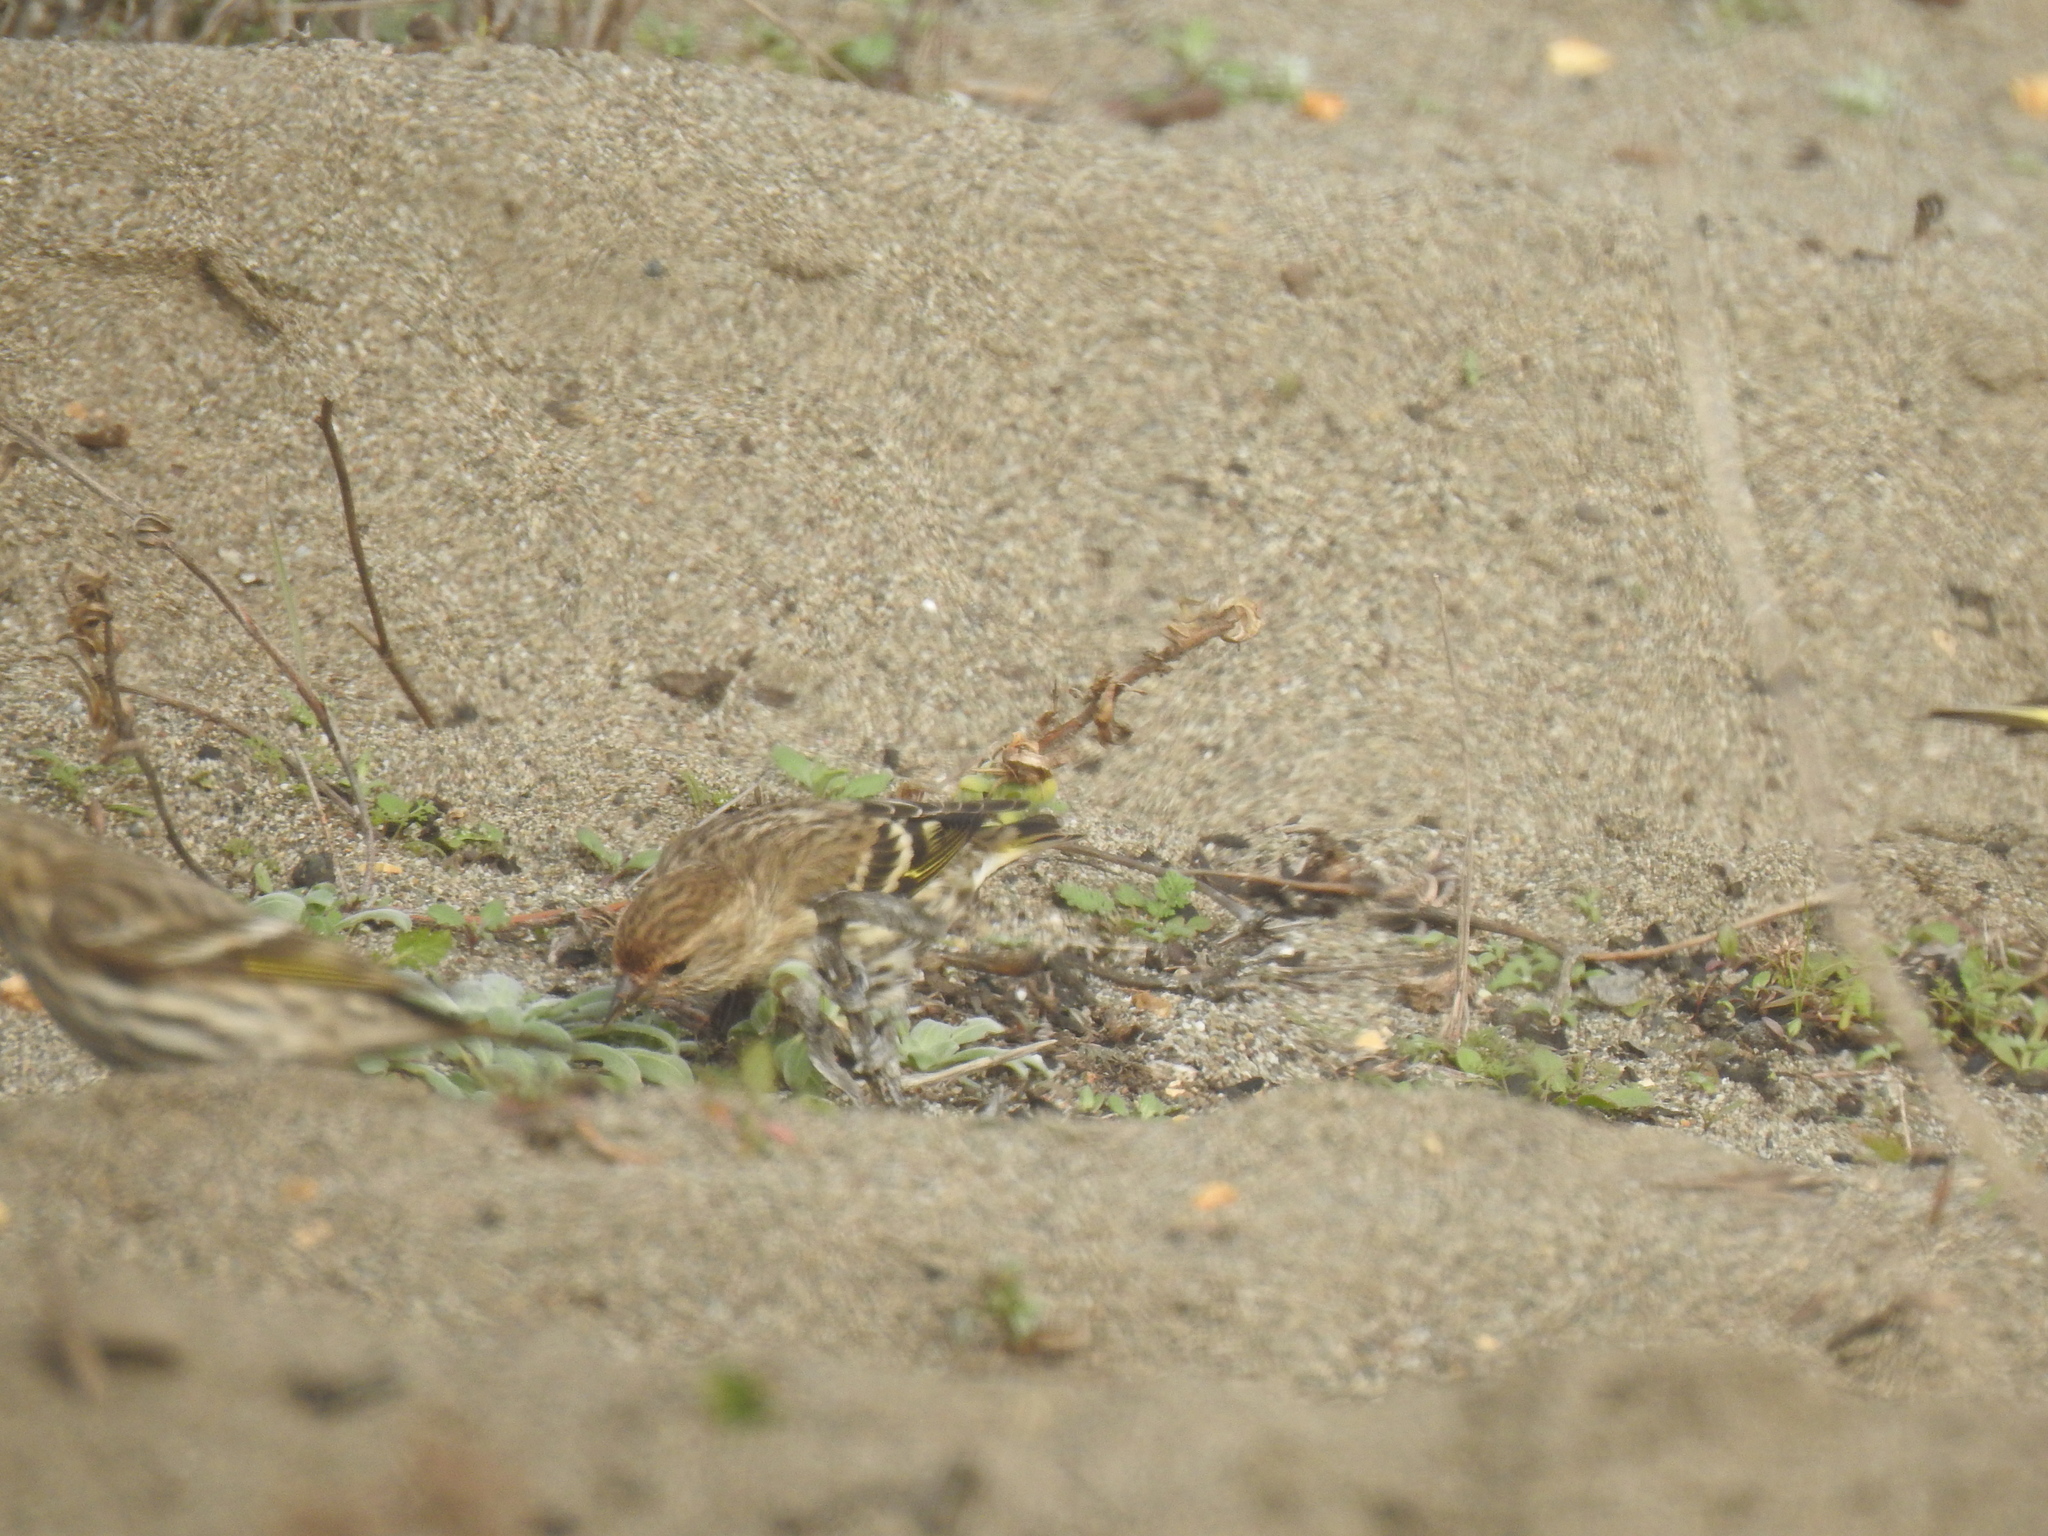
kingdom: Animalia
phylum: Chordata
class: Aves
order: Passeriformes
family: Fringillidae
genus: Spinus
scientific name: Spinus pinus
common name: Pine siskin
